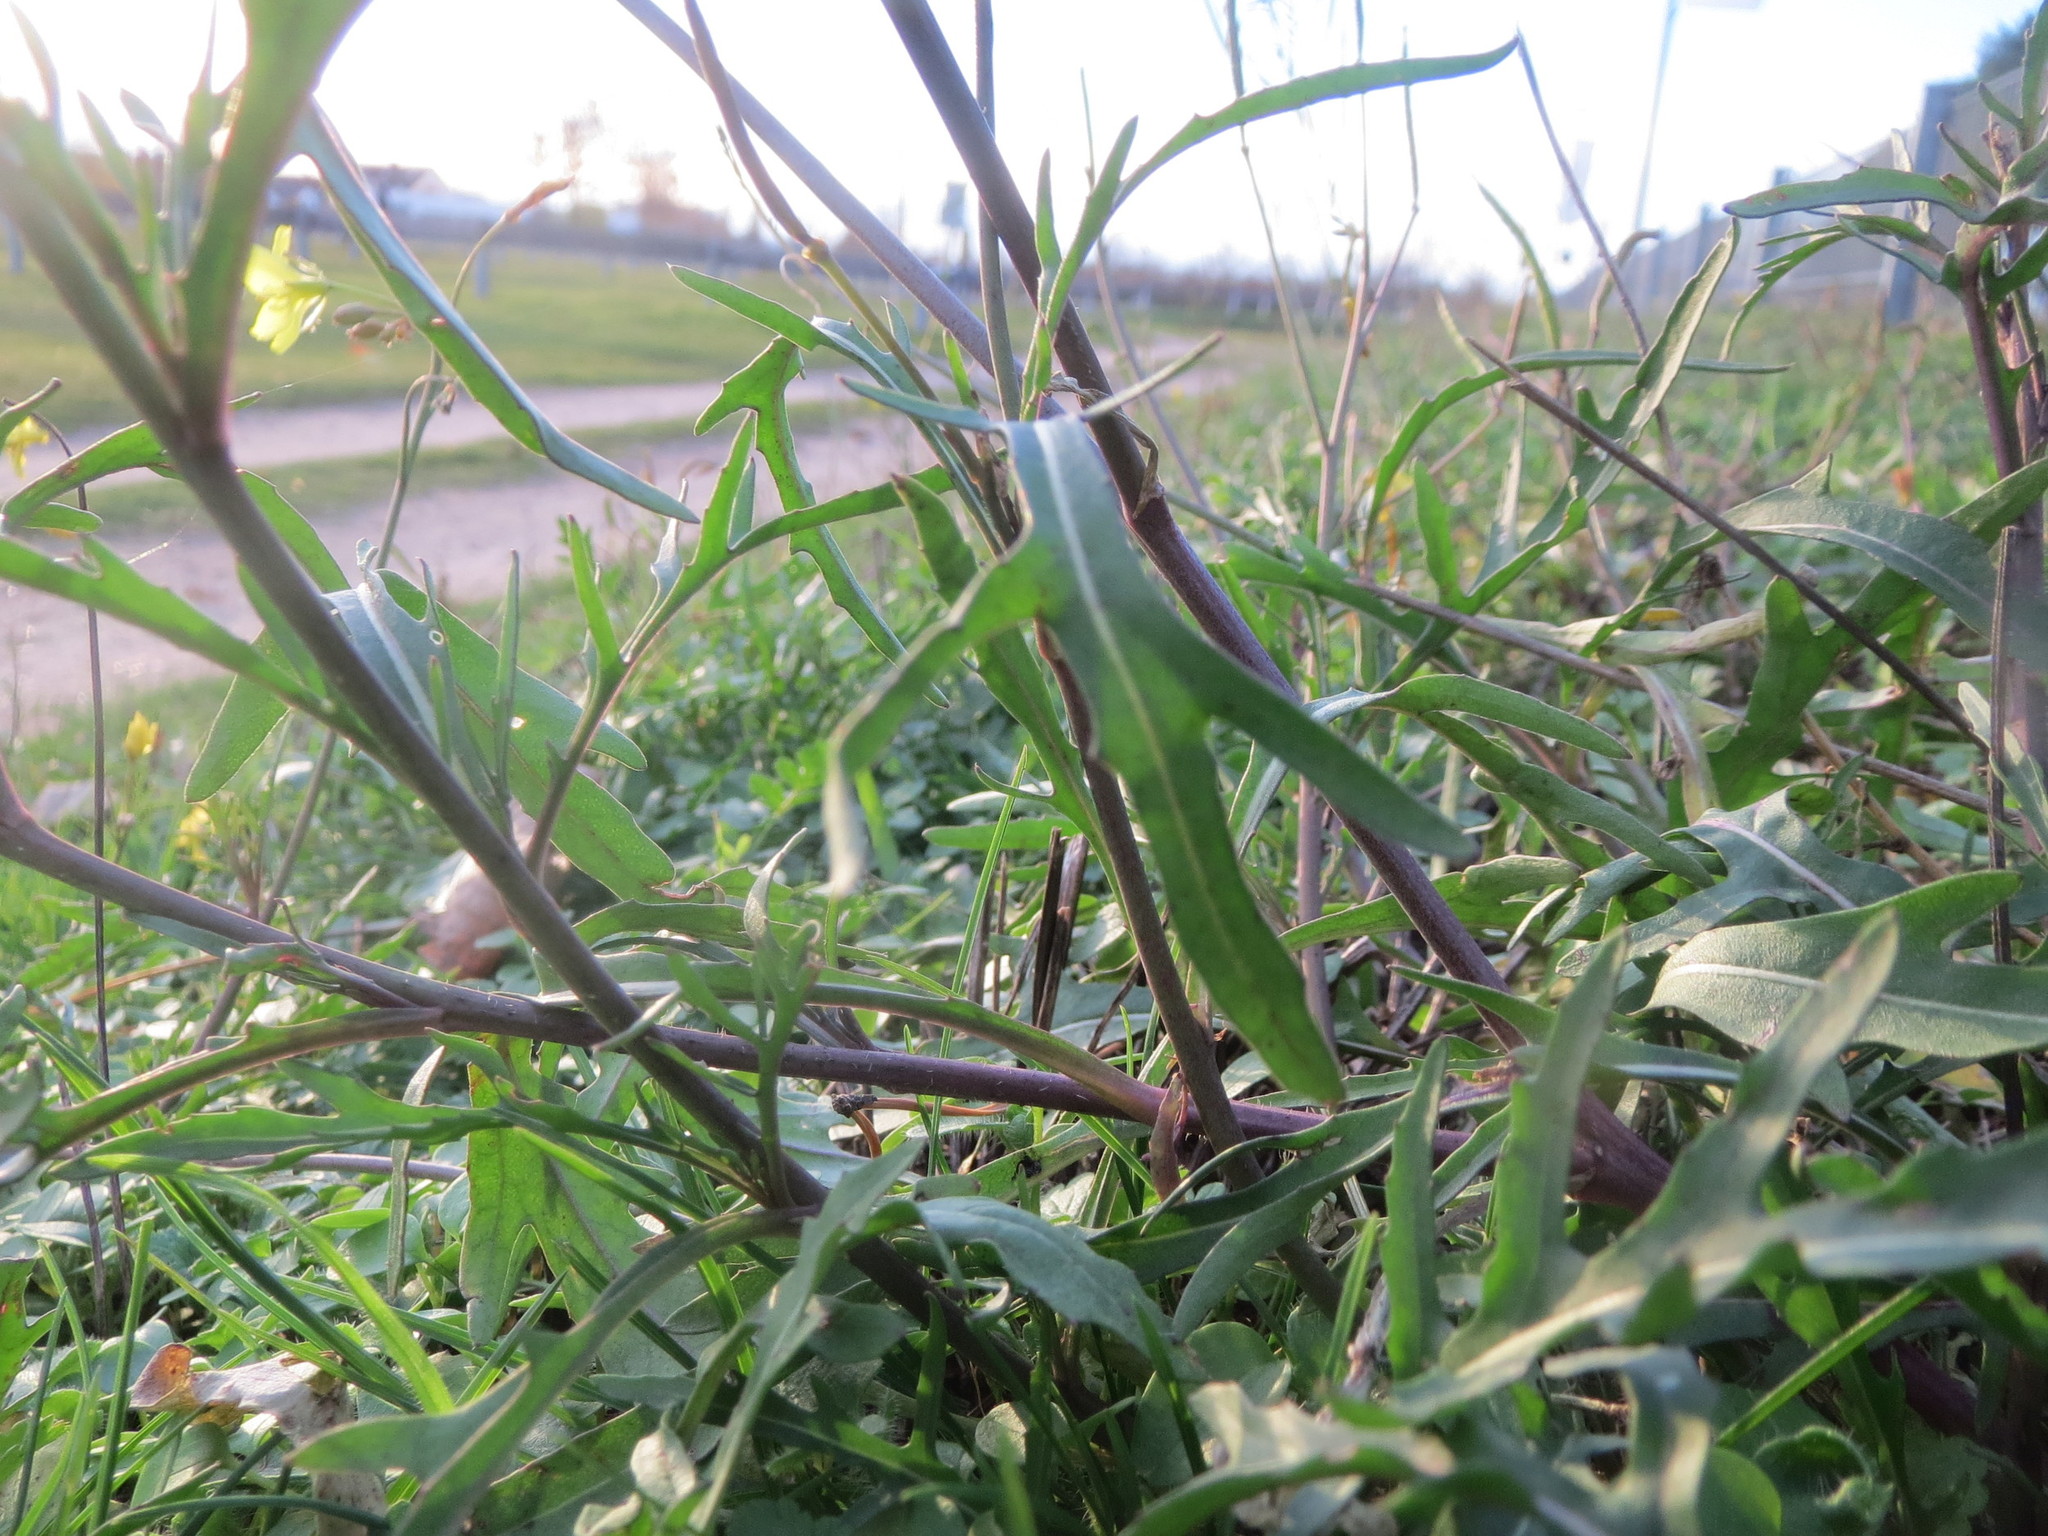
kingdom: Plantae
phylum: Tracheophyta
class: Magnoliopsida
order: Brassicales
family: Brassicaceae
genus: Diplotaxis
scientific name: Diplotaxis tenuifolia
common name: Perennial wall-rocket
